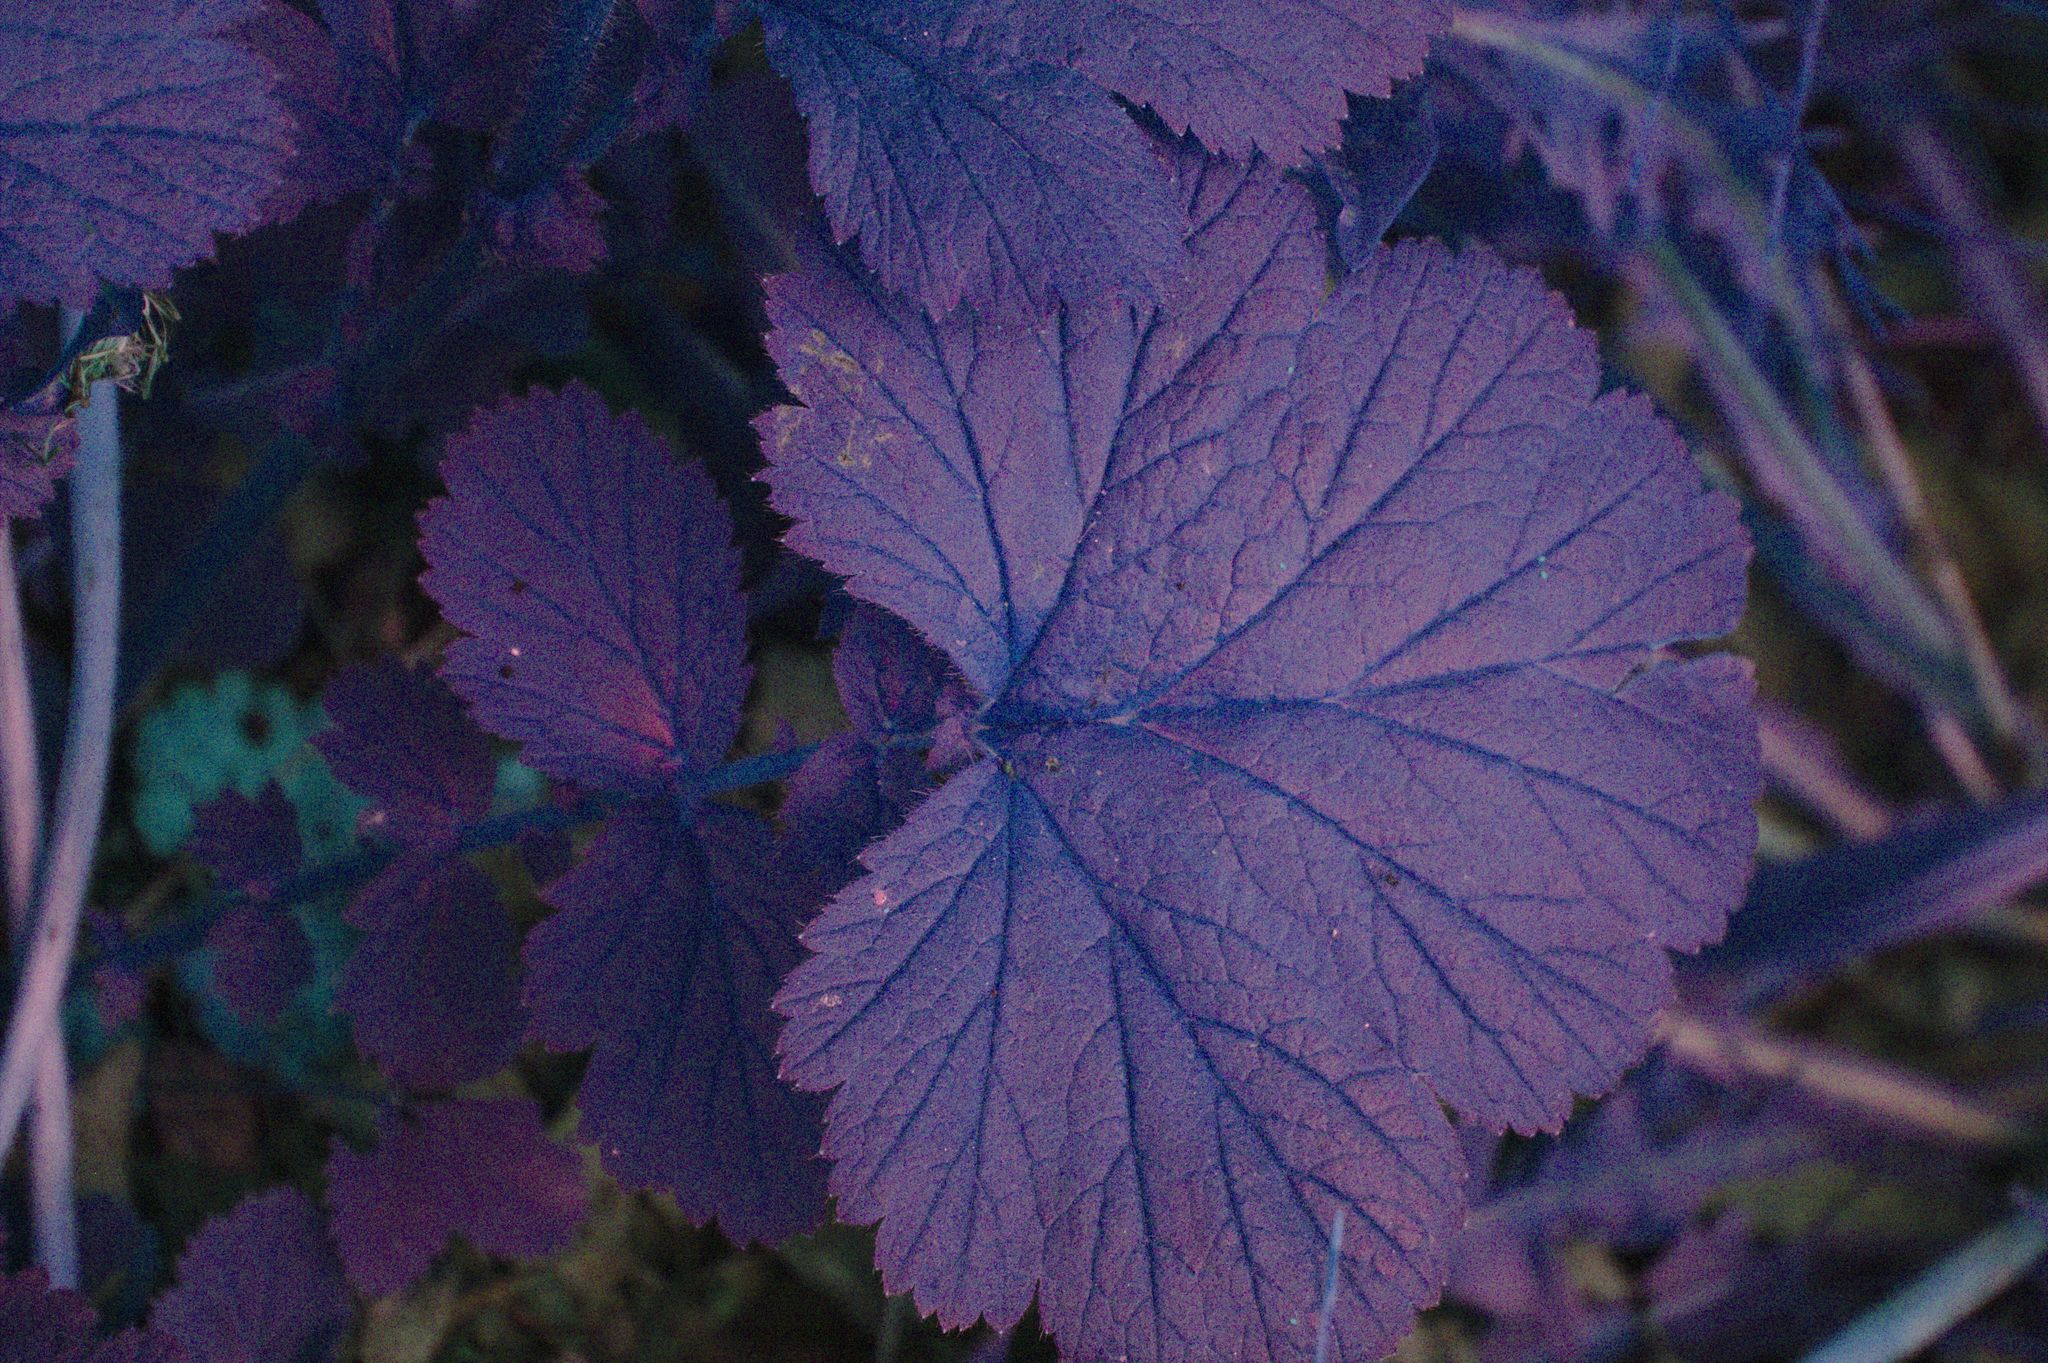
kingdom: Plantae
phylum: Tracheophyta
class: Magnoliopsida
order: Rosales
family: Rosaceae
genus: Geum
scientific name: Geum macrophyllum
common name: Large-leaved avens
